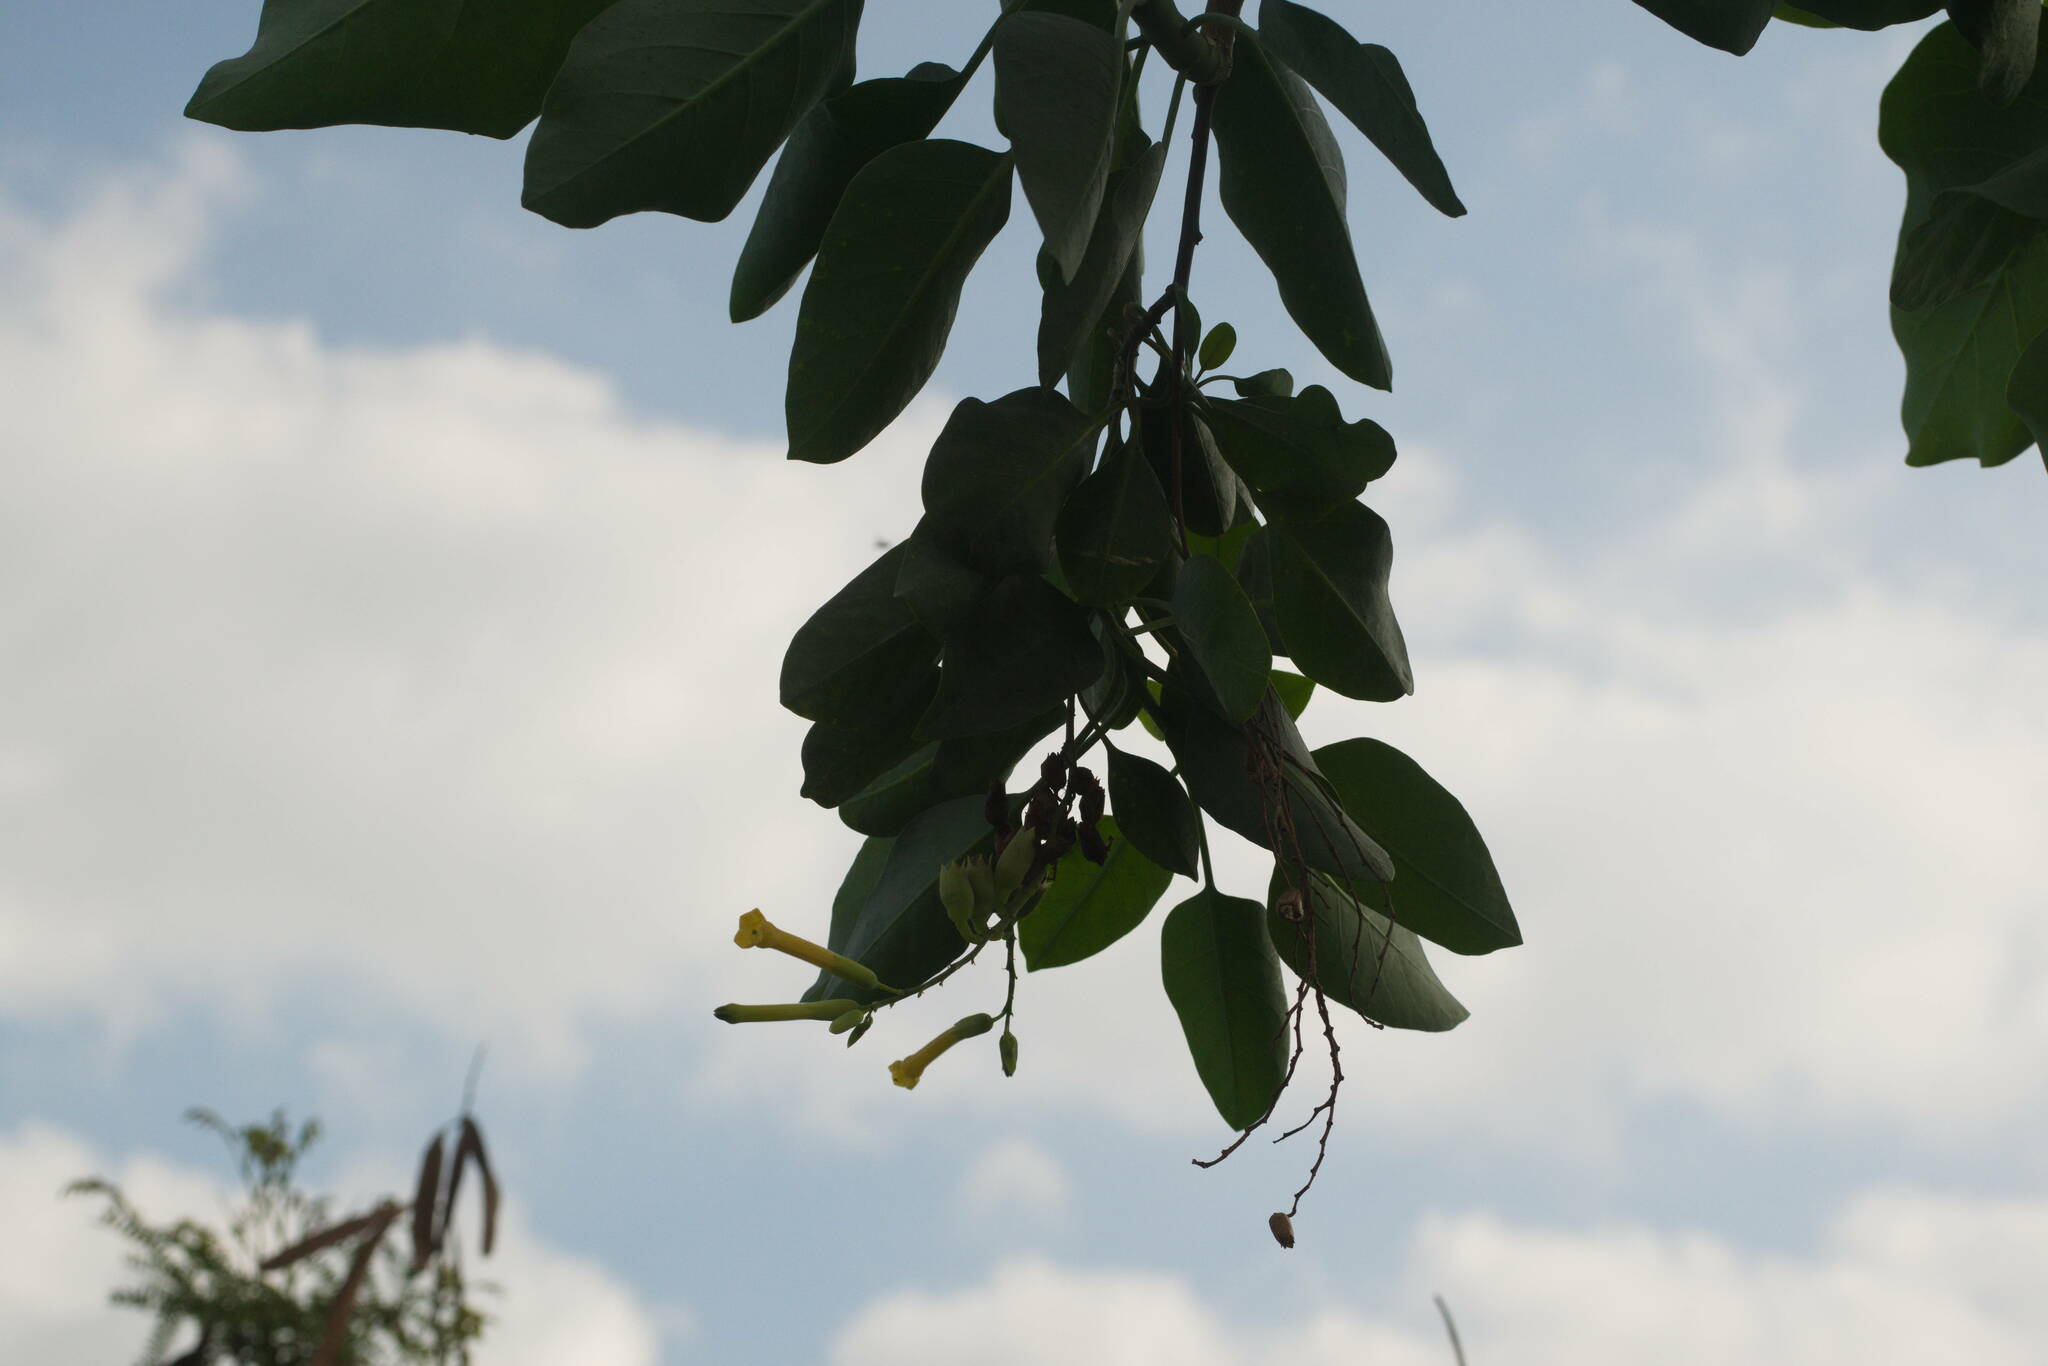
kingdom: Plantae
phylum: Tracheophyta
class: Magnoliopsida
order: Solanales
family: Solanaceae
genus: Nicotiana
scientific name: Nicotiana glauca
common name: Tree tobacco
